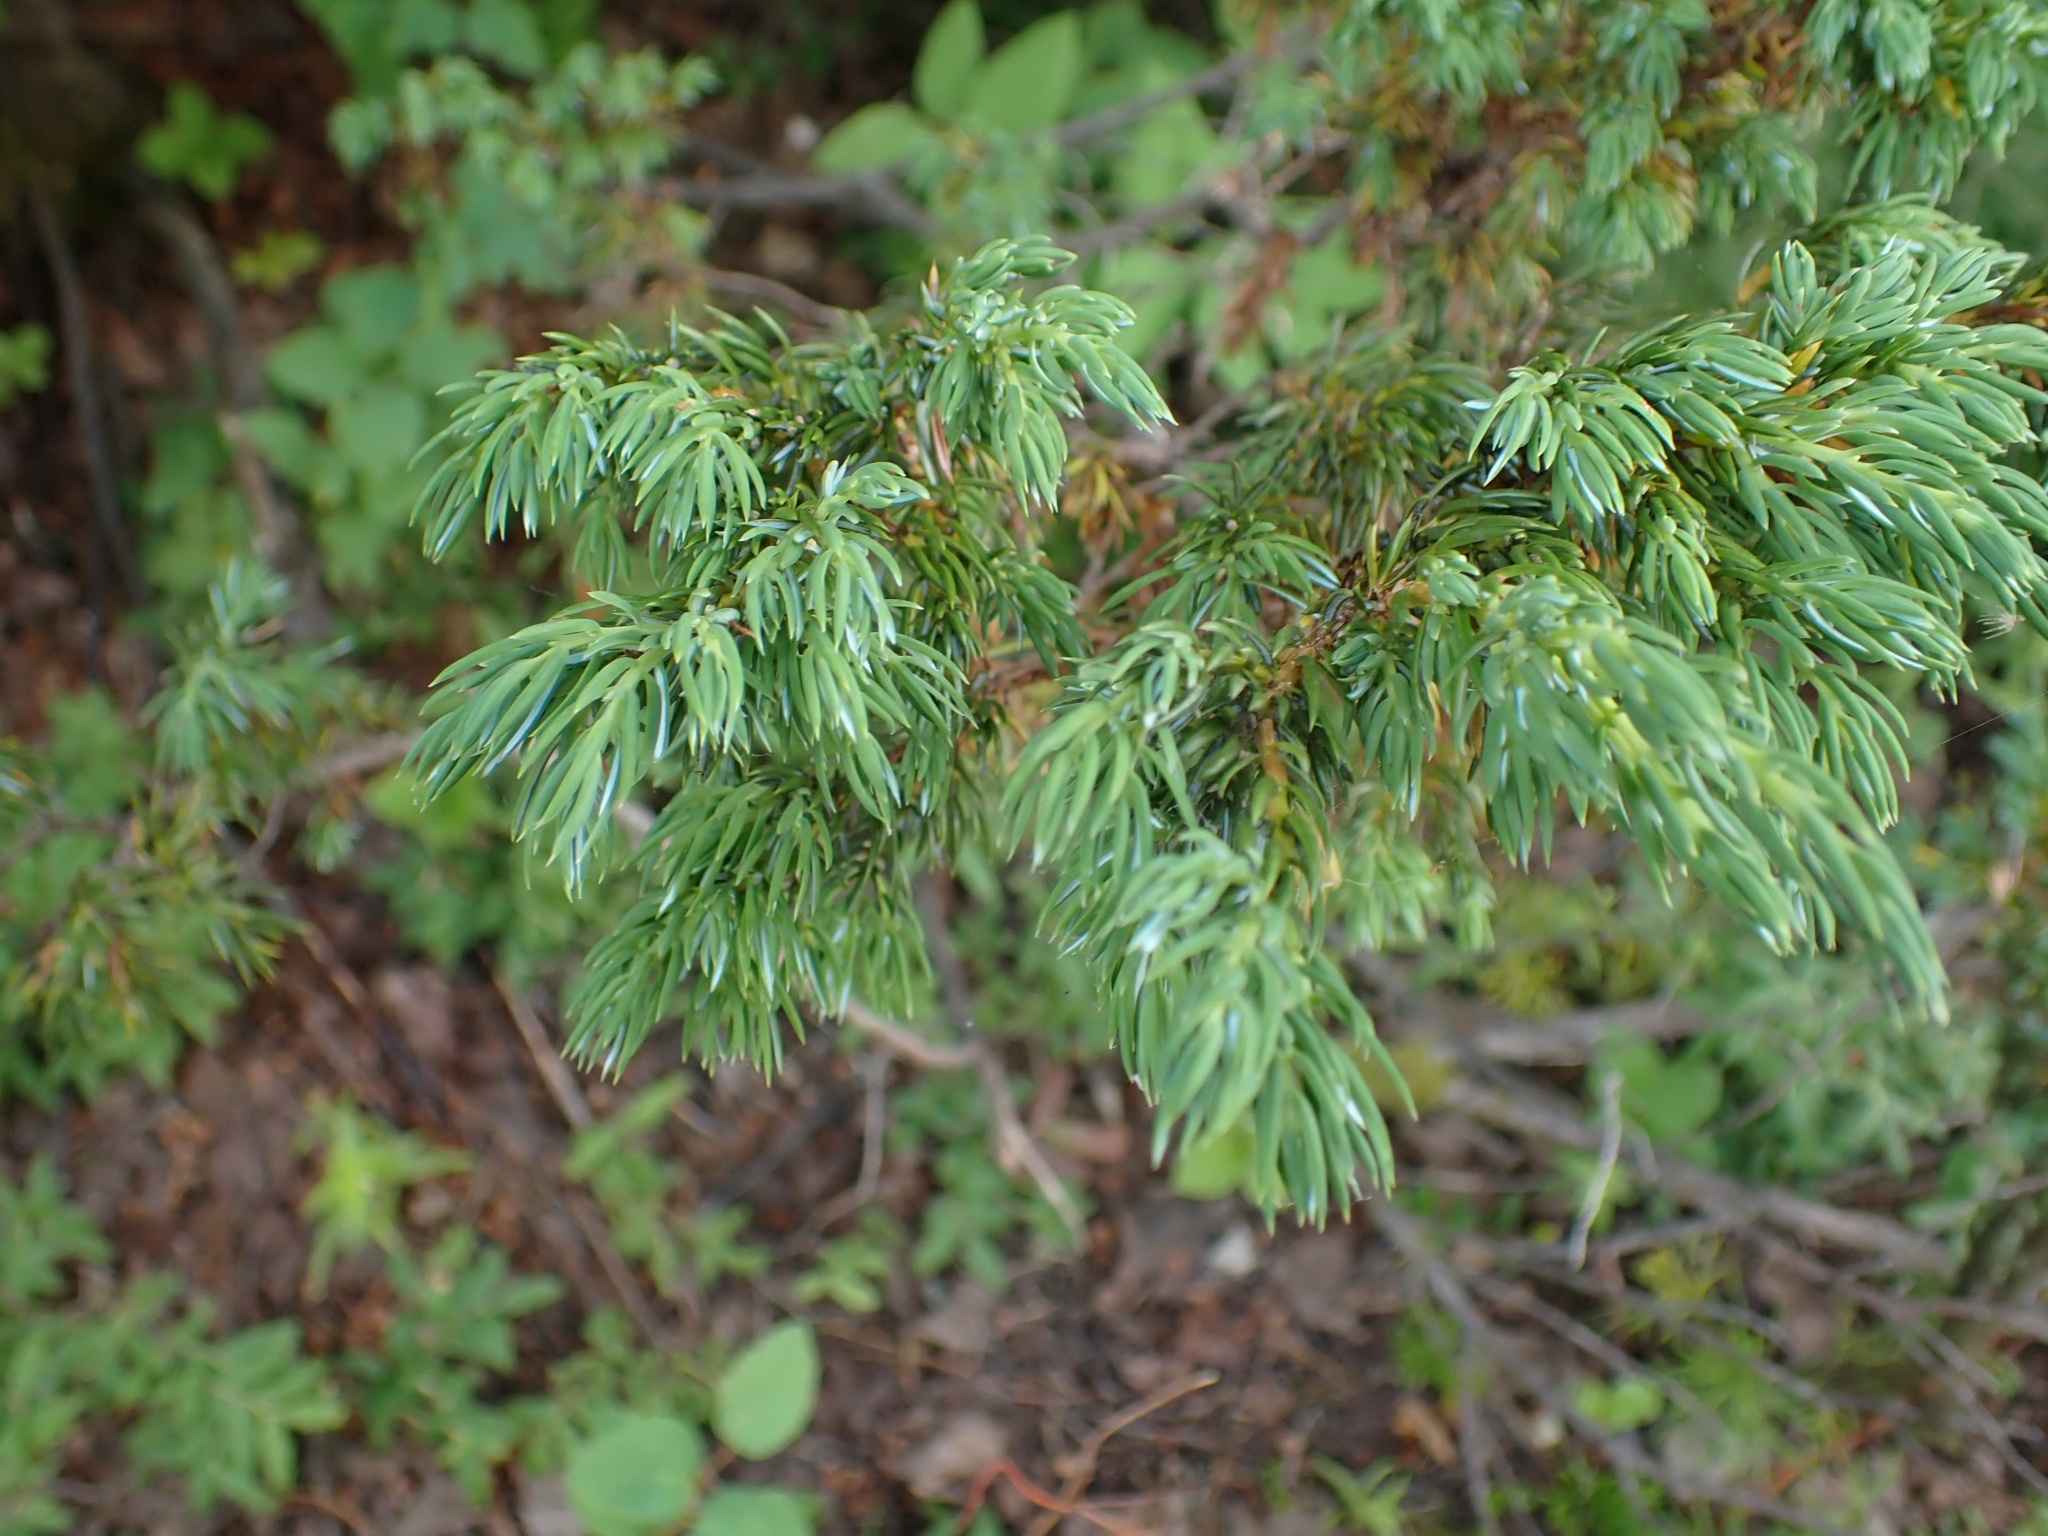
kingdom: Plantae
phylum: Tracheophyta
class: Pinopsida
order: Pinales
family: Cupressaceae
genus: Juniperus
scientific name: Juniperus communis
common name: Common juniper
